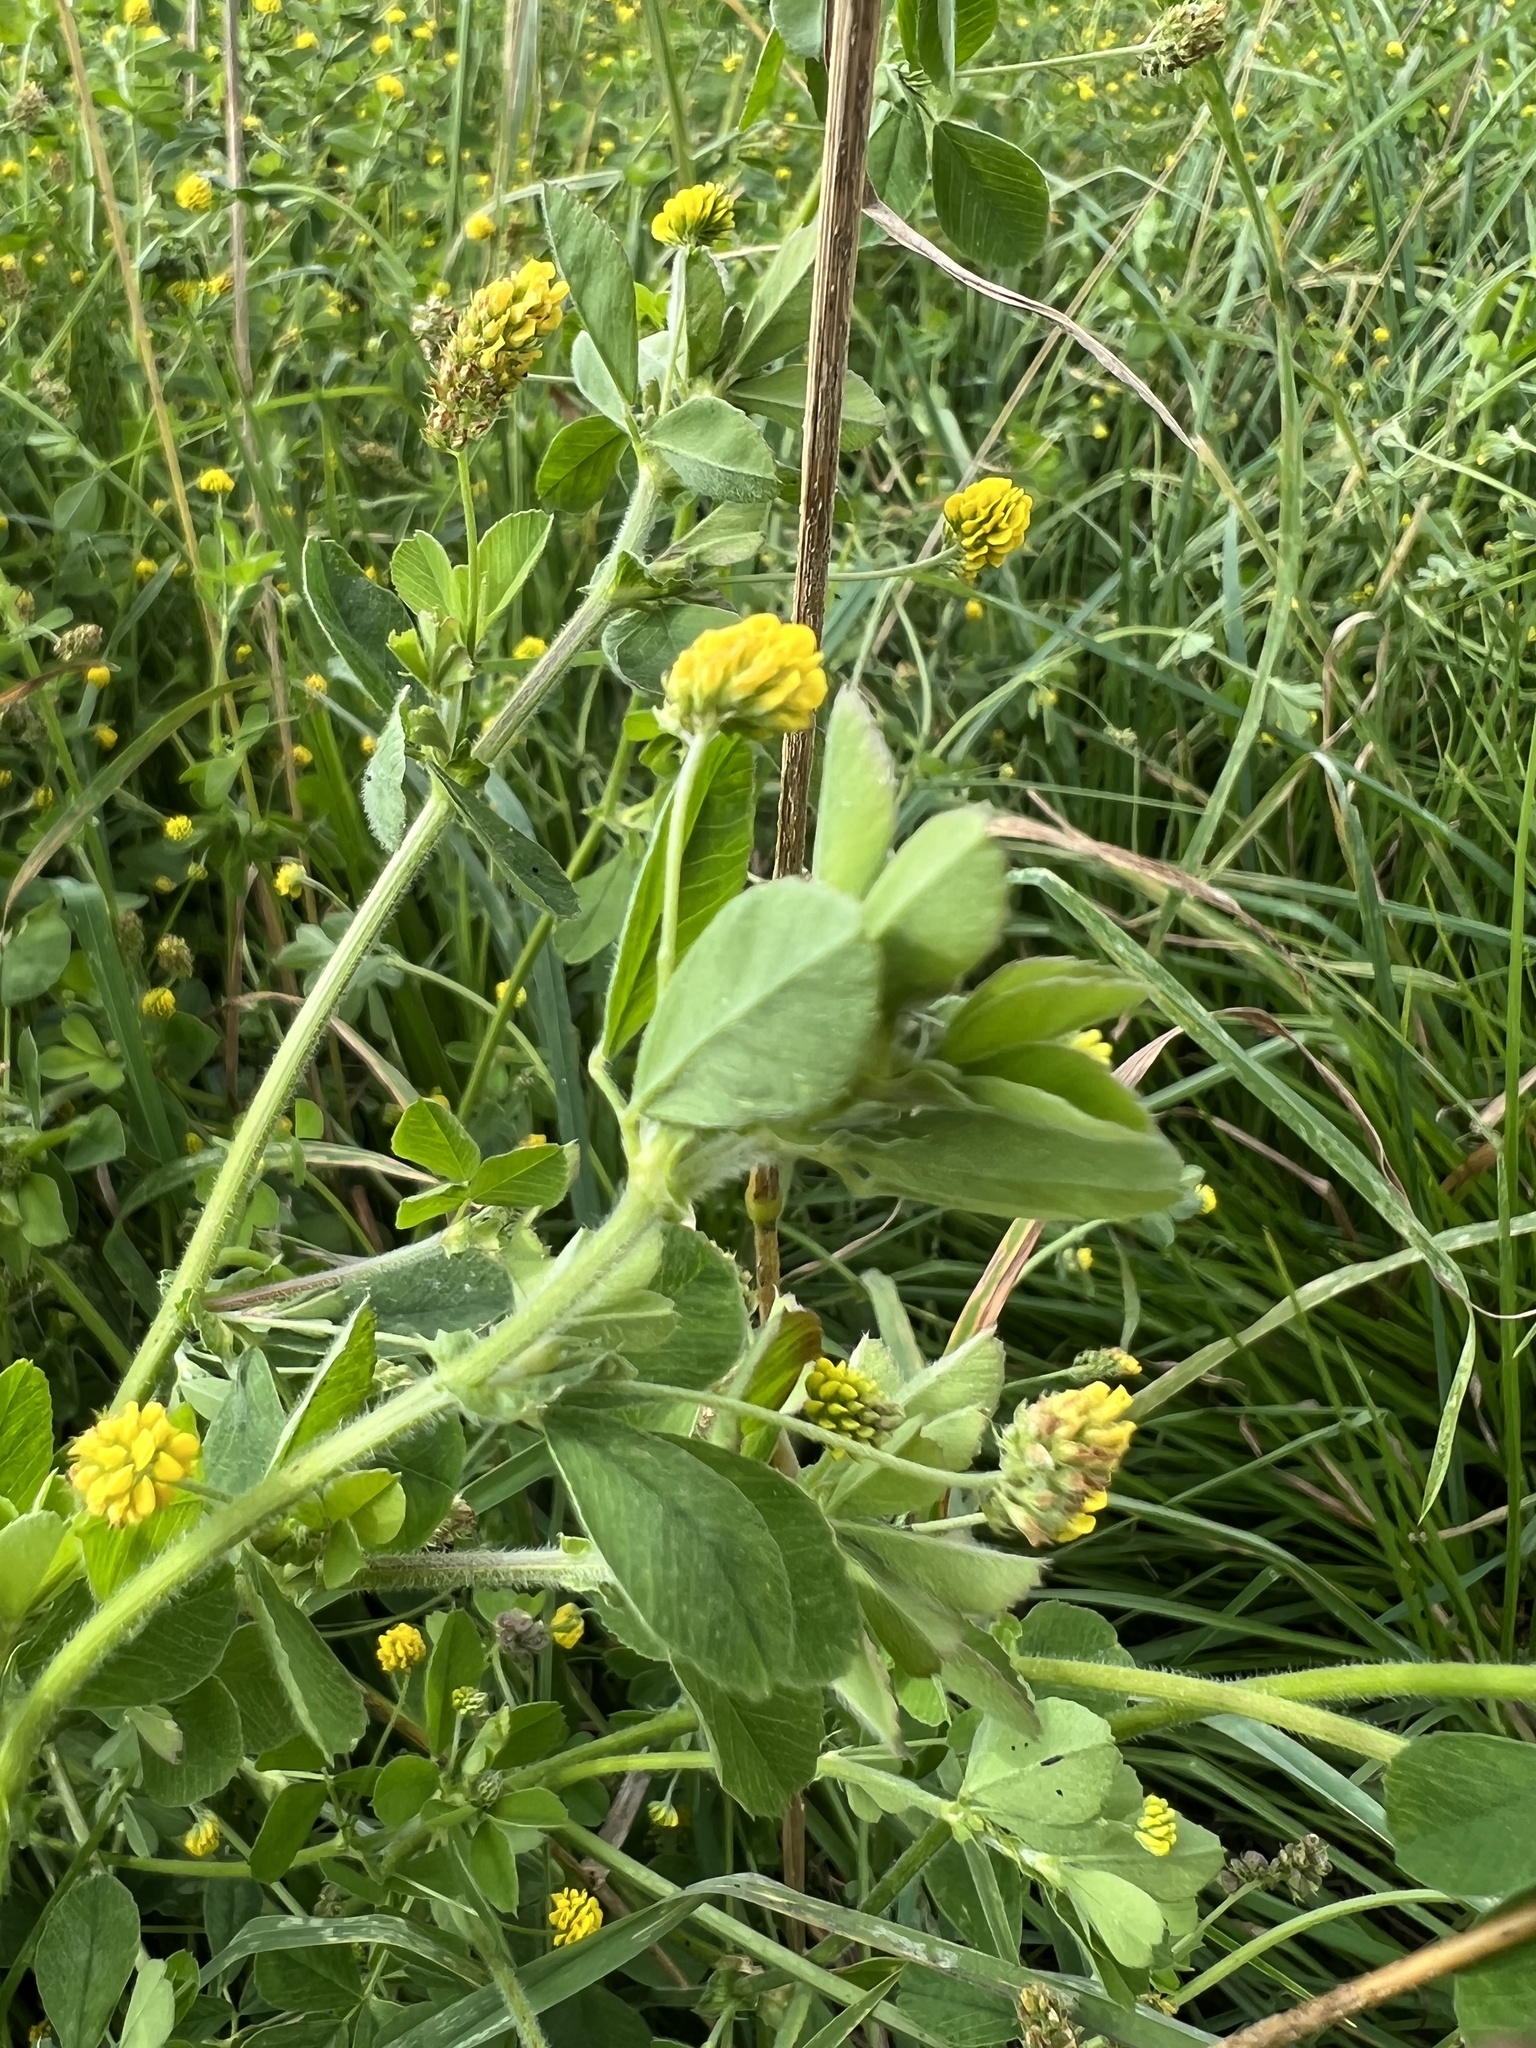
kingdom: Plantae
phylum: Tracheophyta
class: Magnoliopsida
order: Fabales
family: Fabaceae
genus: Medicago
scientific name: Medicago lupulina
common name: Black medick
